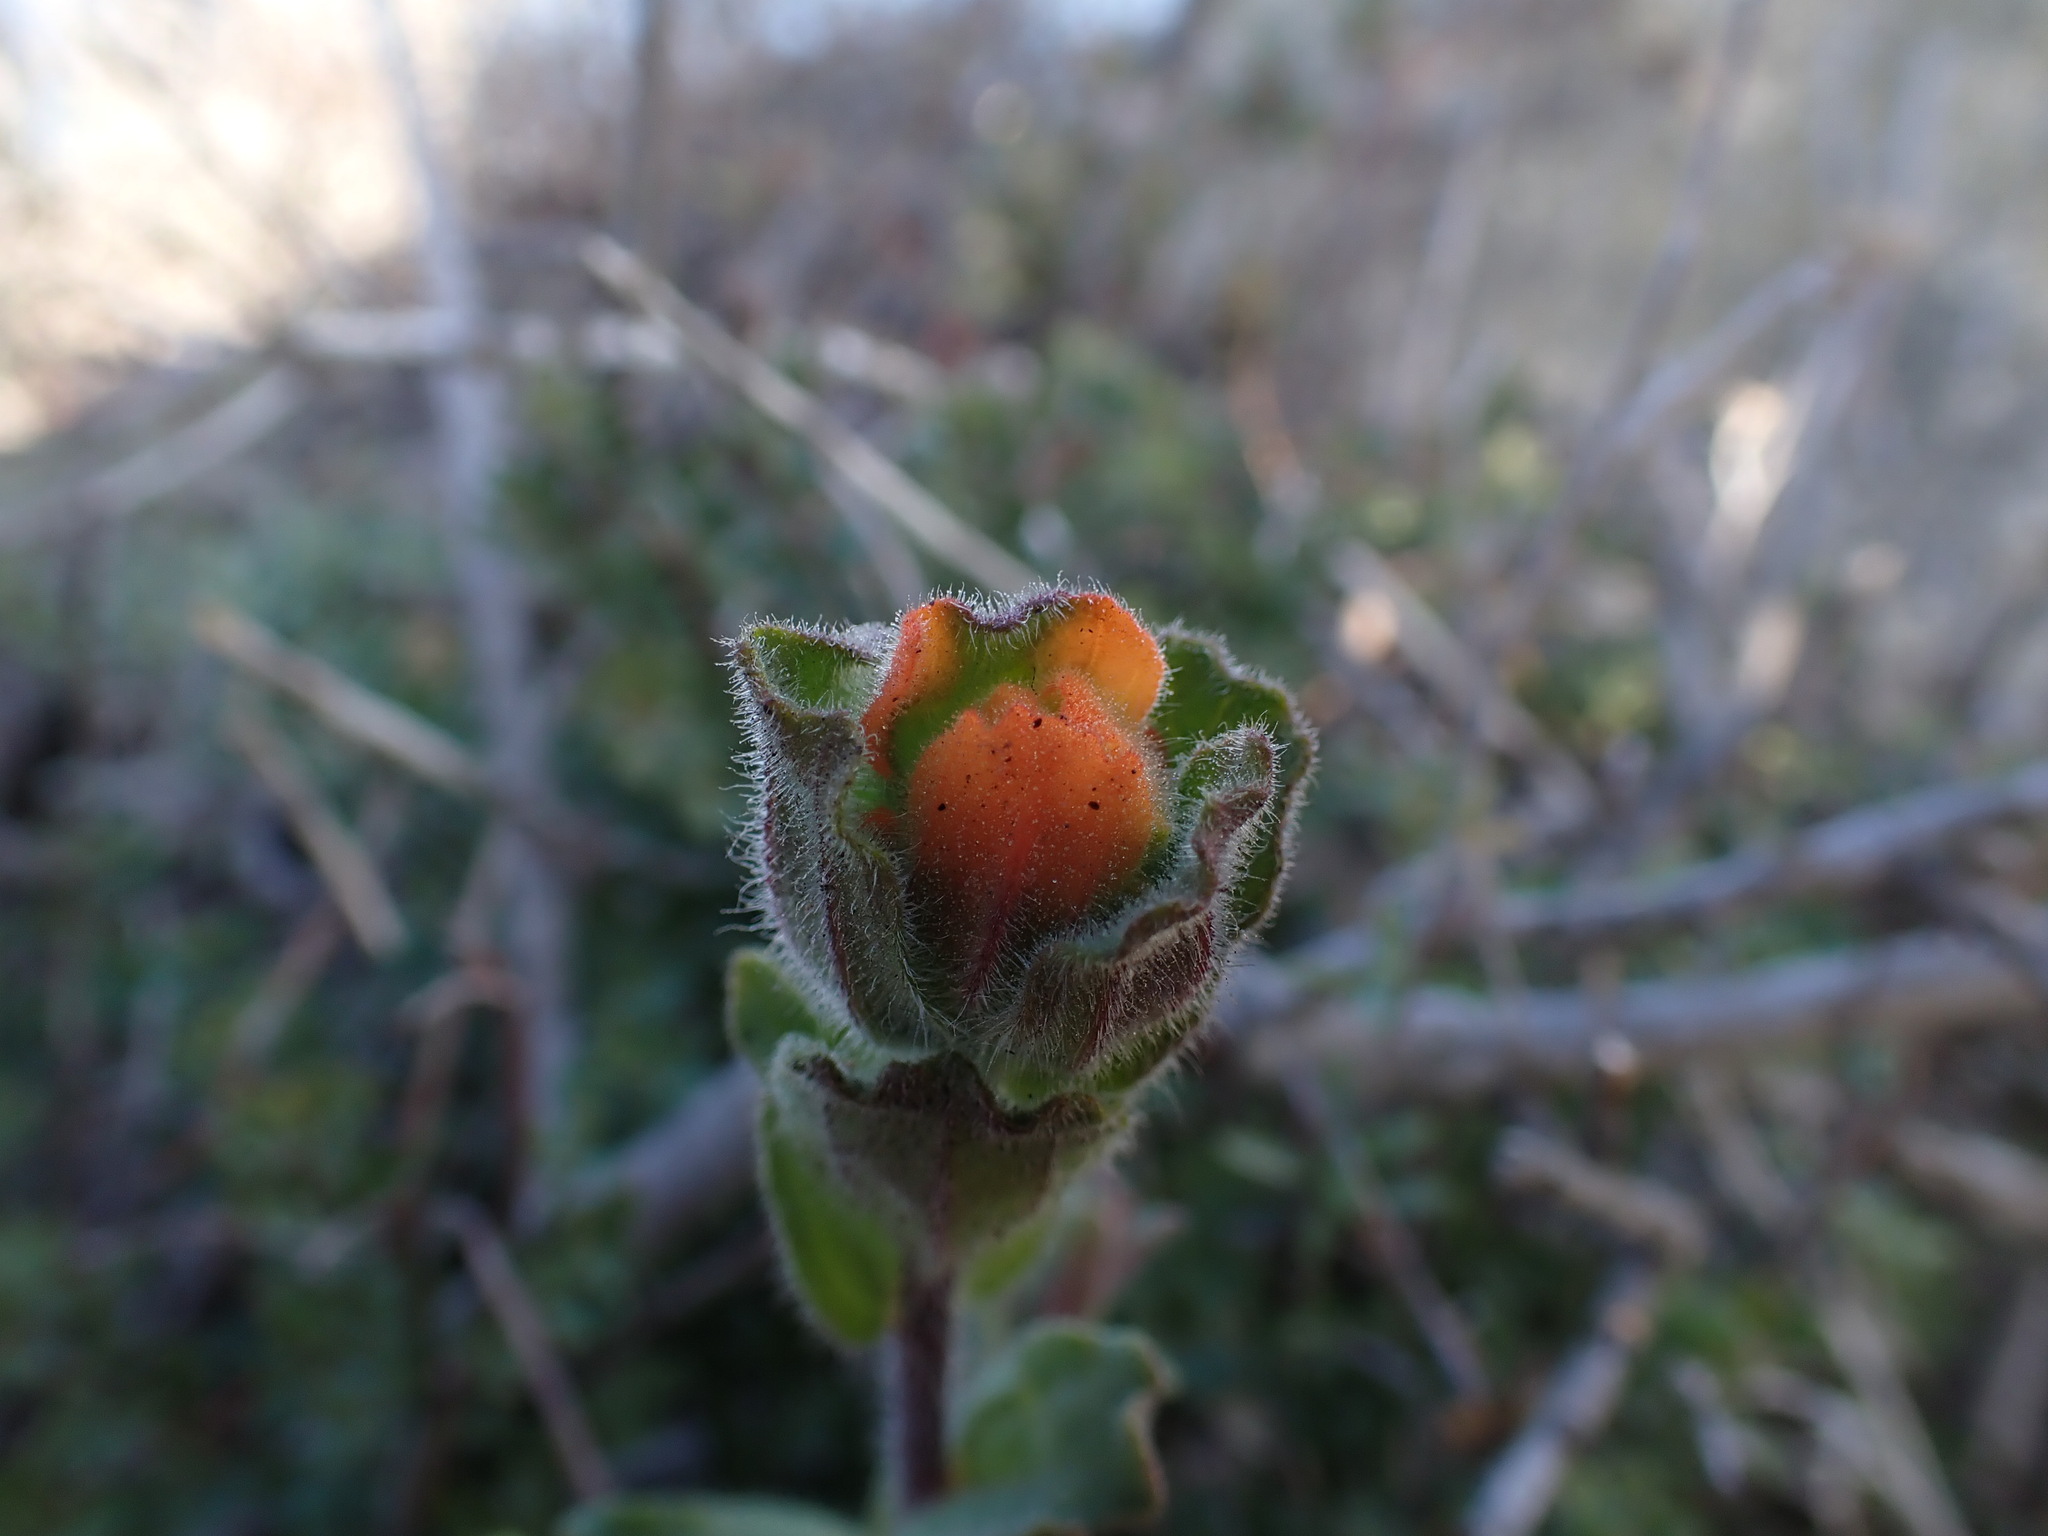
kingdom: Plantae
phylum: Tracheophyta
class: Magnoliopsida
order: Lamiales
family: Orobanchaceae
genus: Castilleja
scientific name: Castilleja latifolia
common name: Monterey indian paintbrush
